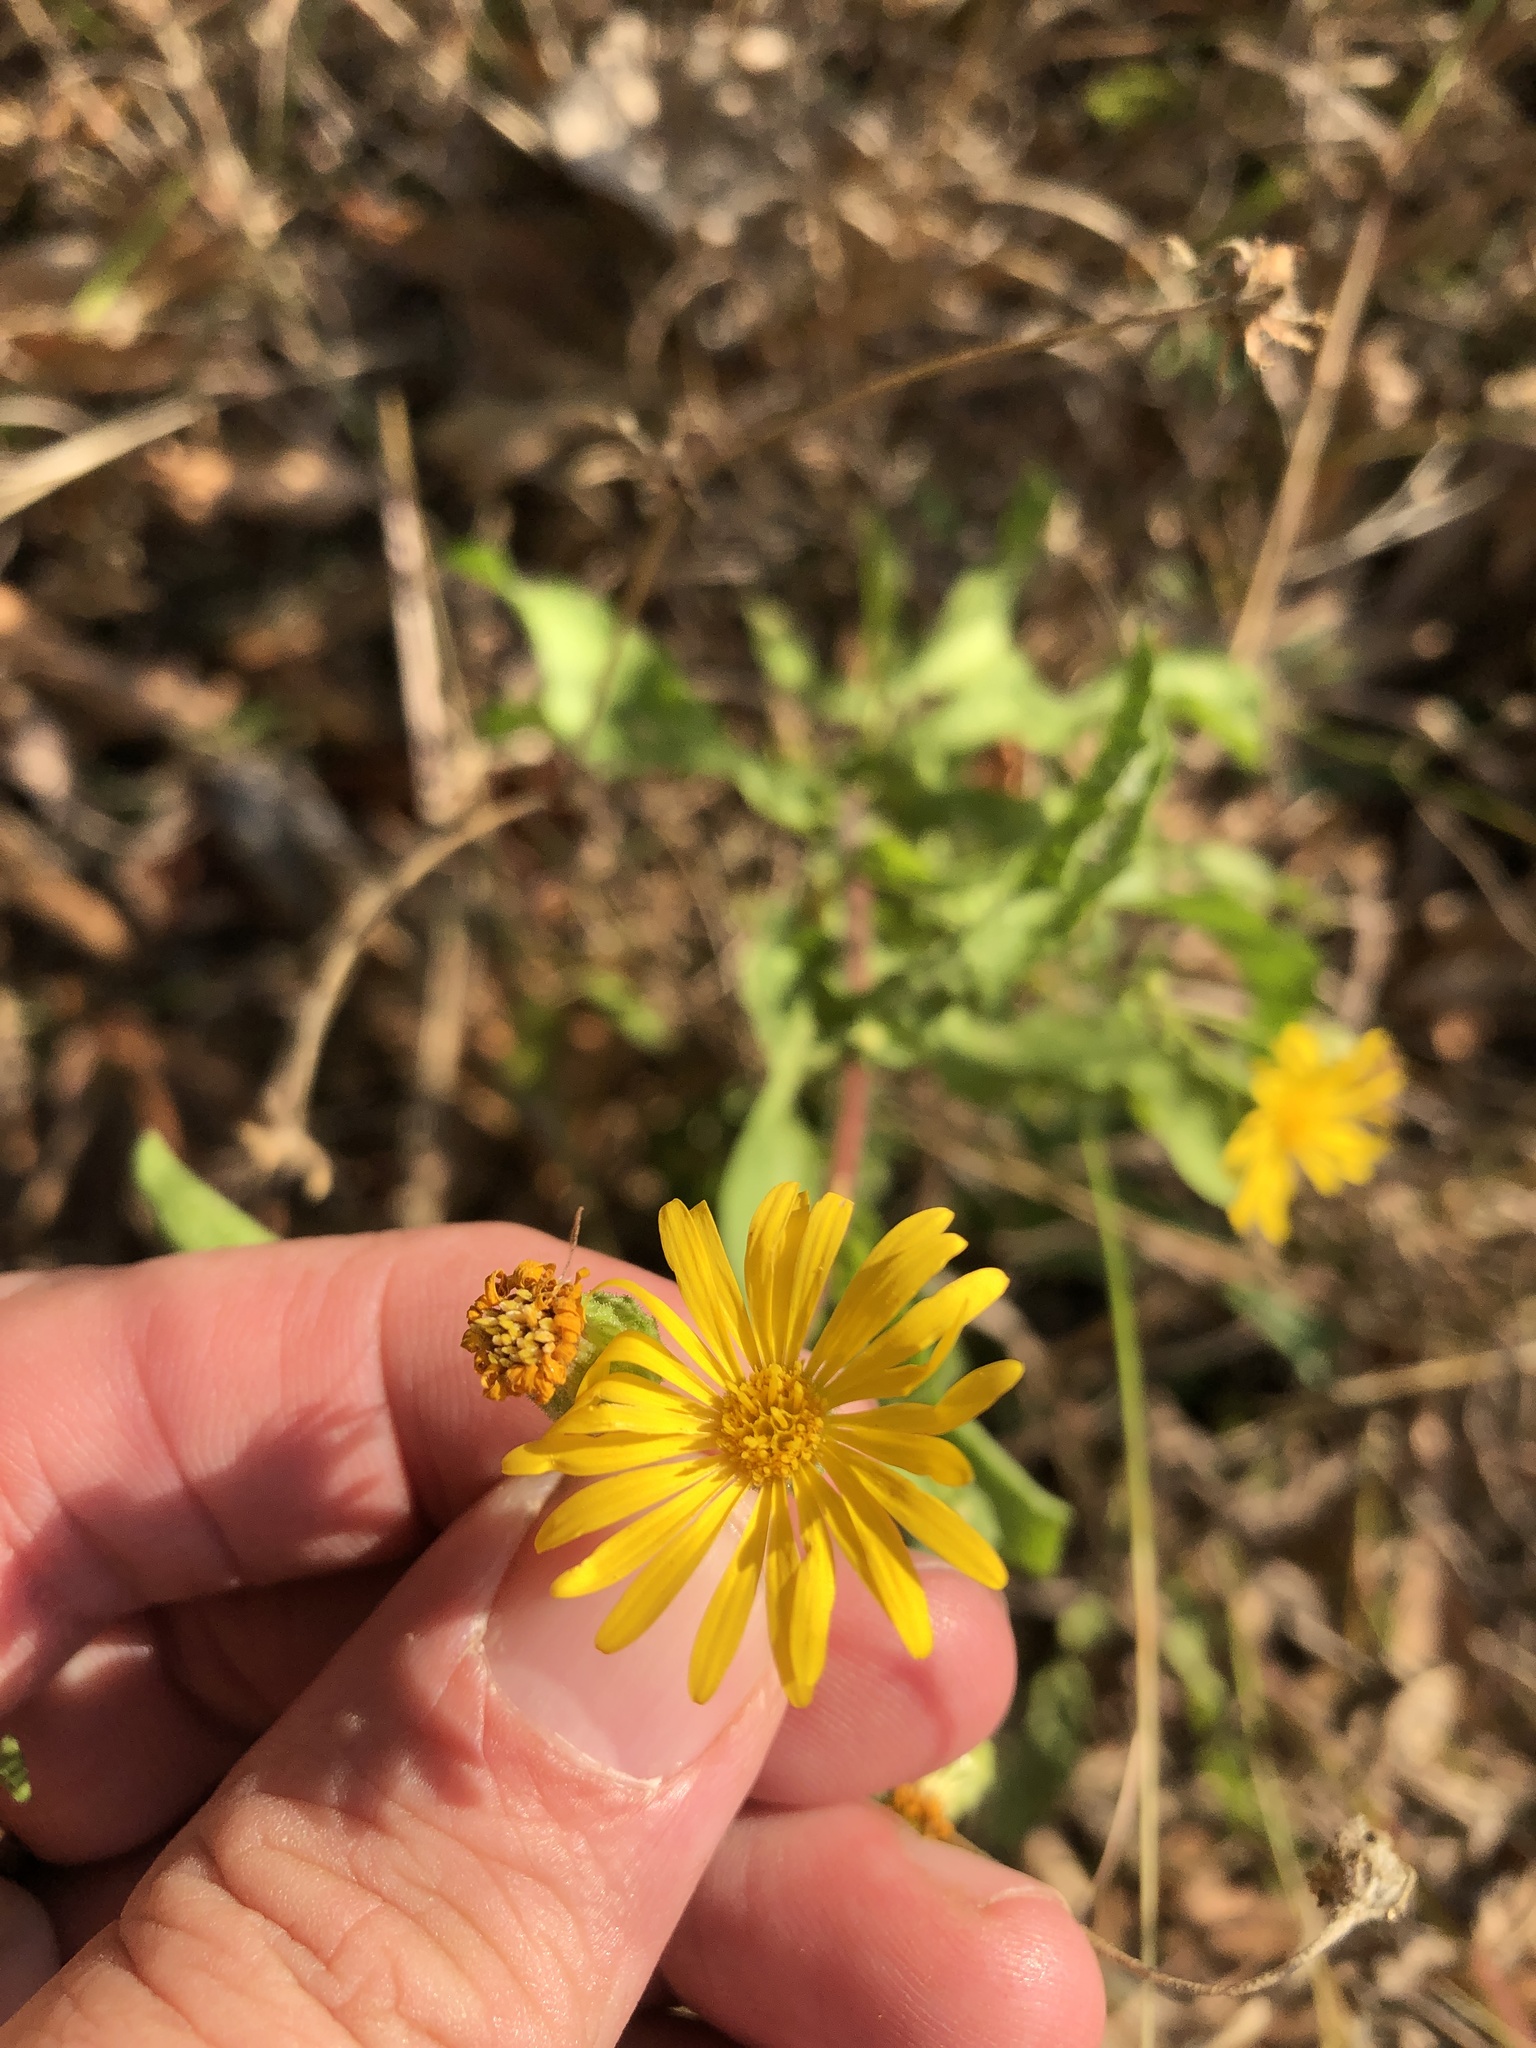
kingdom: Plantae
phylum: Tracheophyta
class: Magnoliopsida
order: Asterales
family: Asteraceae
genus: Heterotheca
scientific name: Heterotheca subaxillaris
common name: Camphorweed
